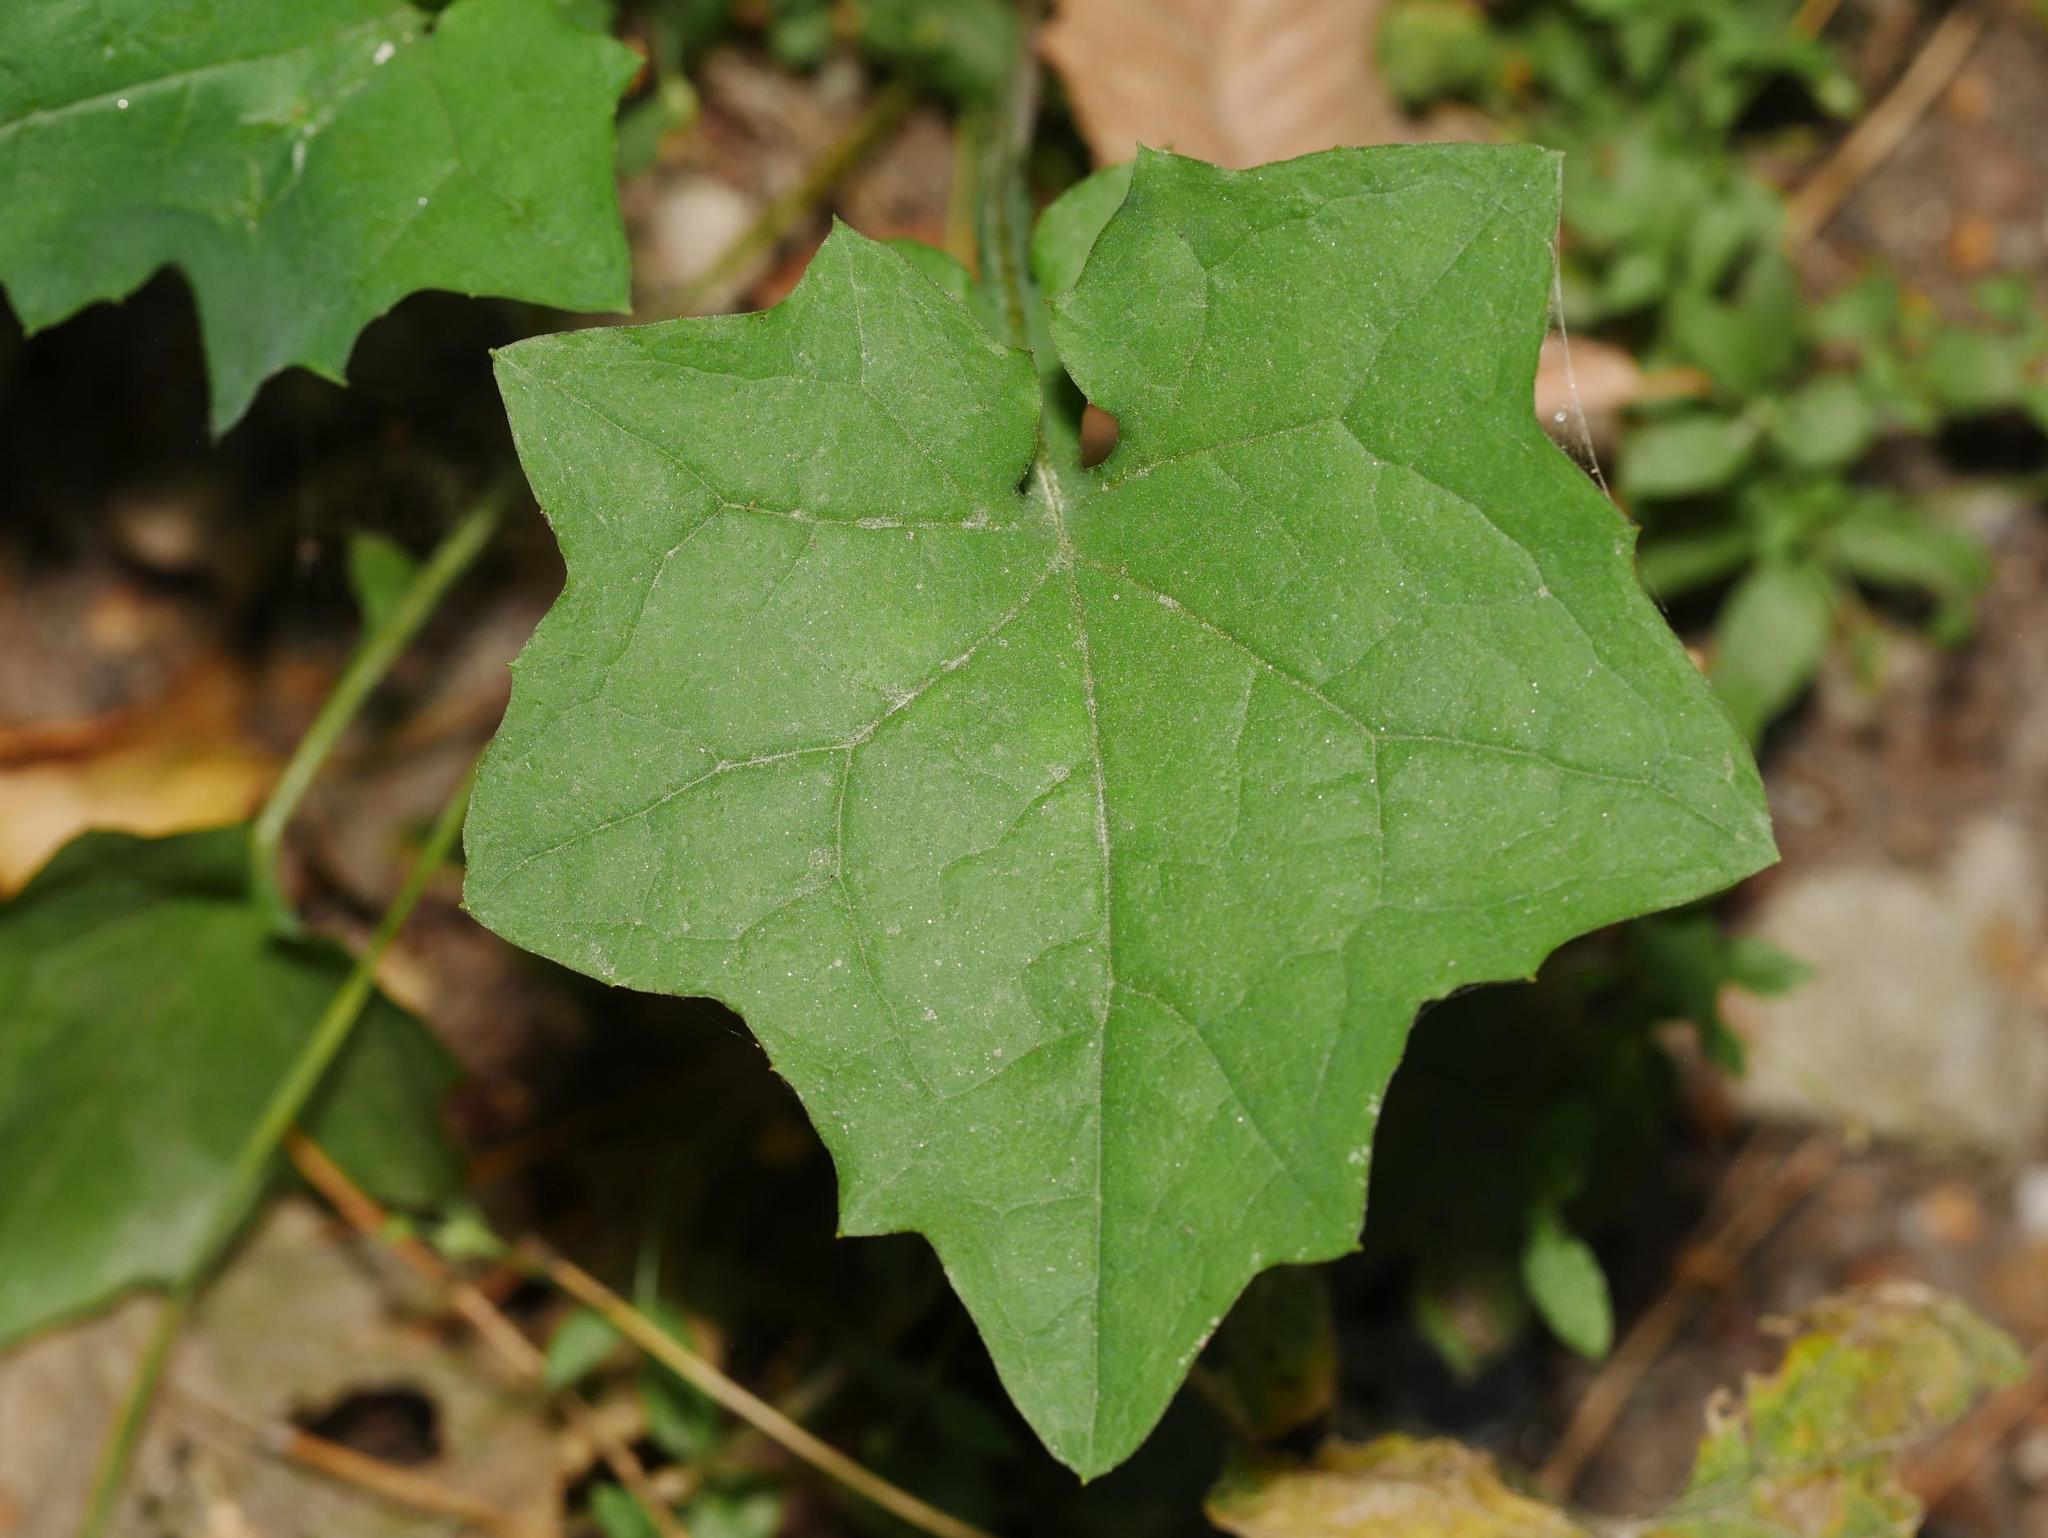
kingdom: Plantae
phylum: Tracheophyta
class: Magnoliopsida
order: Asterales
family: Asteraceae
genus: Mycelis
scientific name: Mycelis muralis
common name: Wall lettuce
